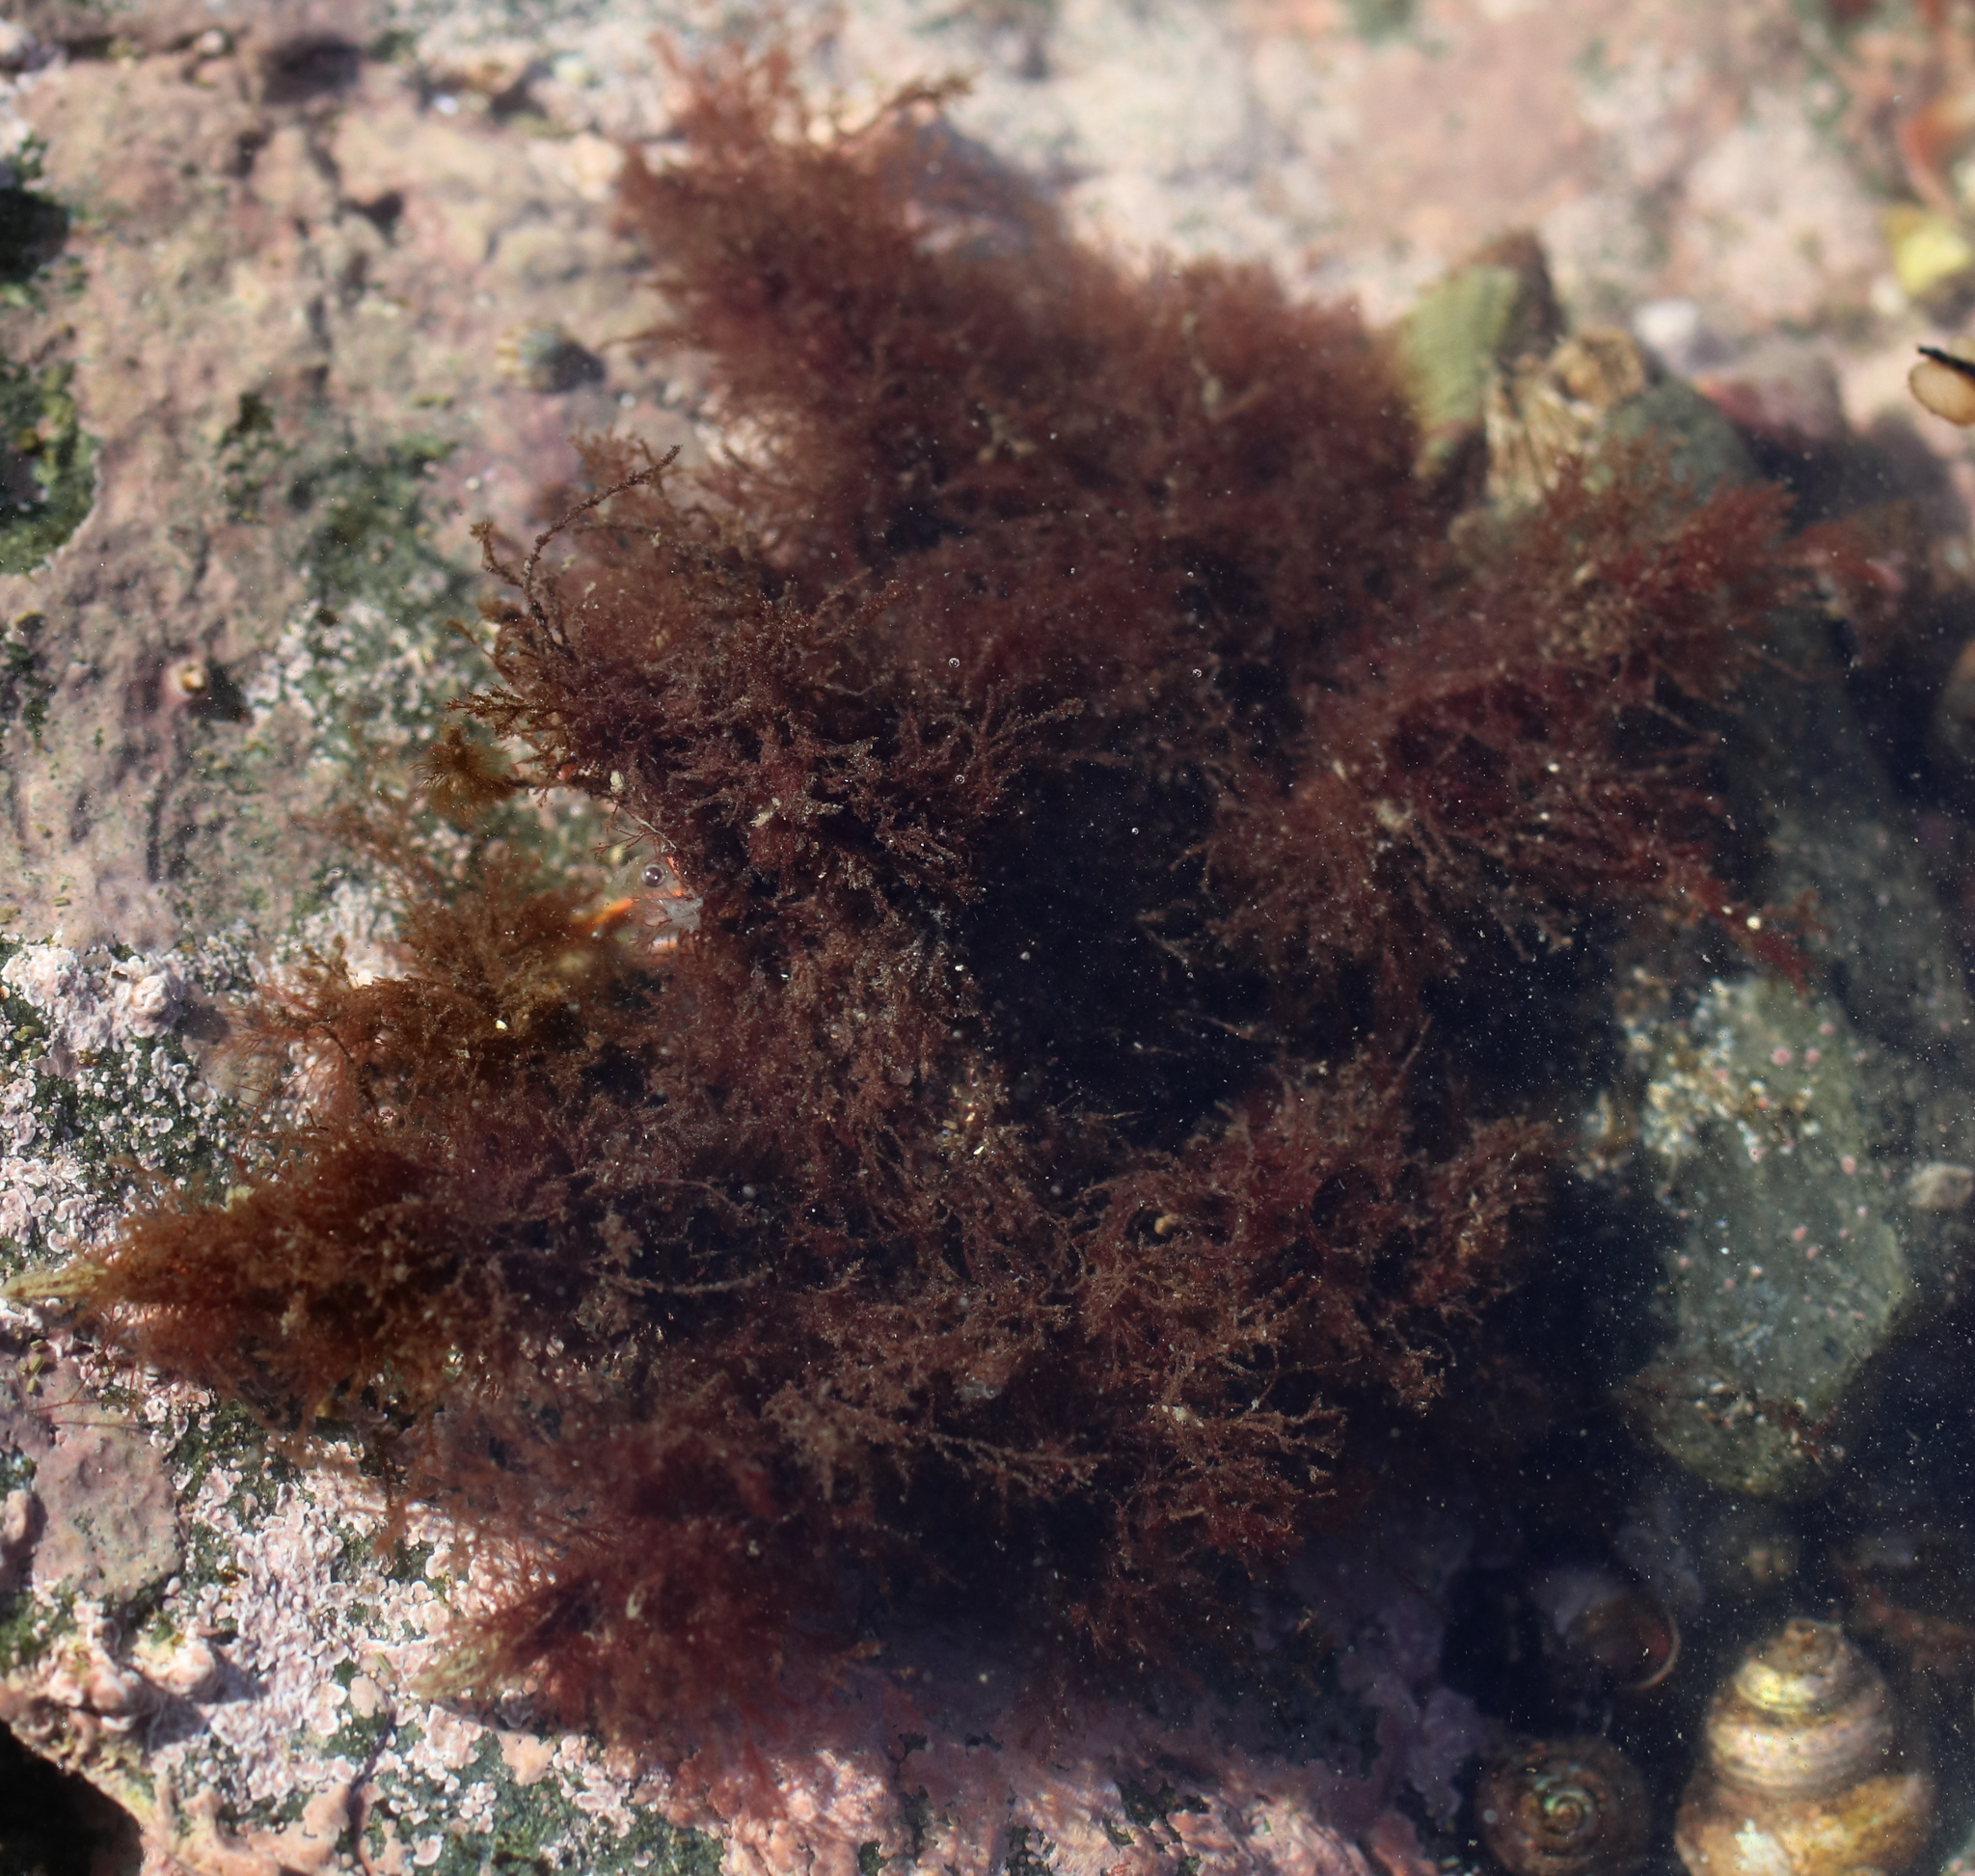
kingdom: Animalia
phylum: Arthropoda
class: Malacostraca
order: Decapoda
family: Oregoniidae
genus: Oregonia
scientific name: Oregonia gracilis
